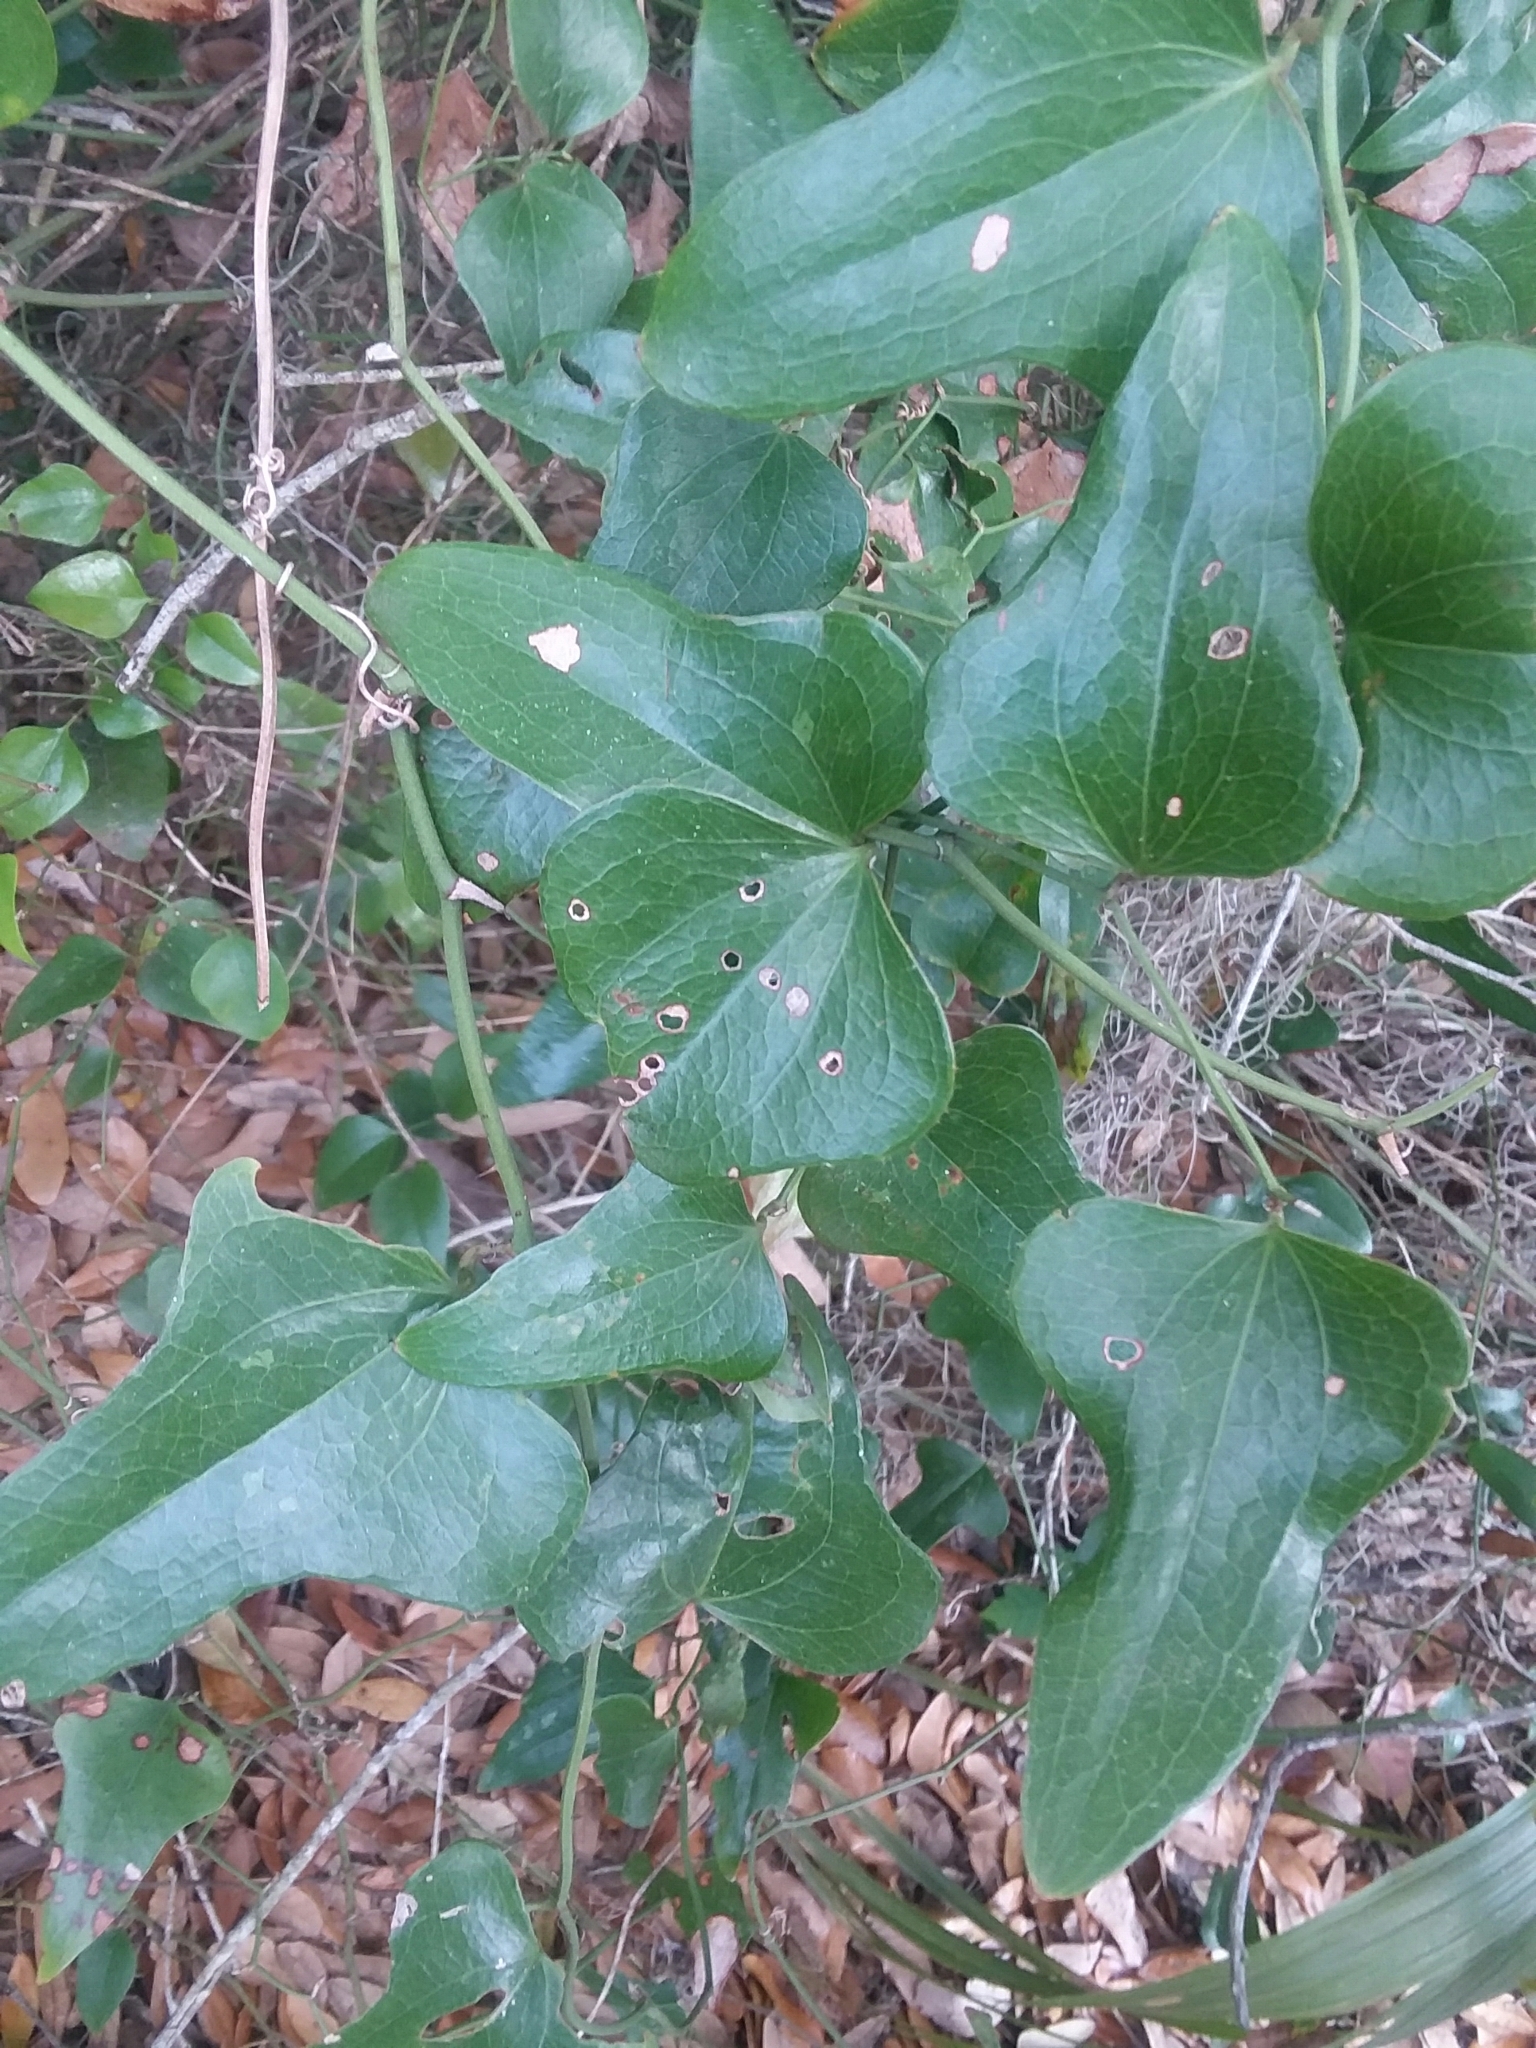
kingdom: Plantae
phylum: Tracheophyta
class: Liliopsida
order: Liliales
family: Smilacaceae
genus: Smilax
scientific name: Smilax bona-nox
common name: Catbrier
